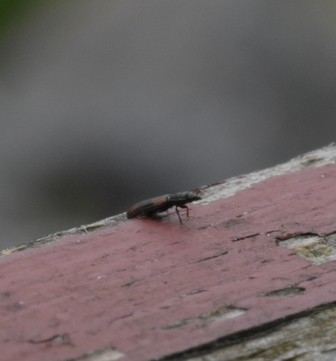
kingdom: Animalia
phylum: Arthropoda
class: Insecta
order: Coleoptera
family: Zopheridae
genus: Bitoma
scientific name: Bitoma crenata
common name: Bark beetle
